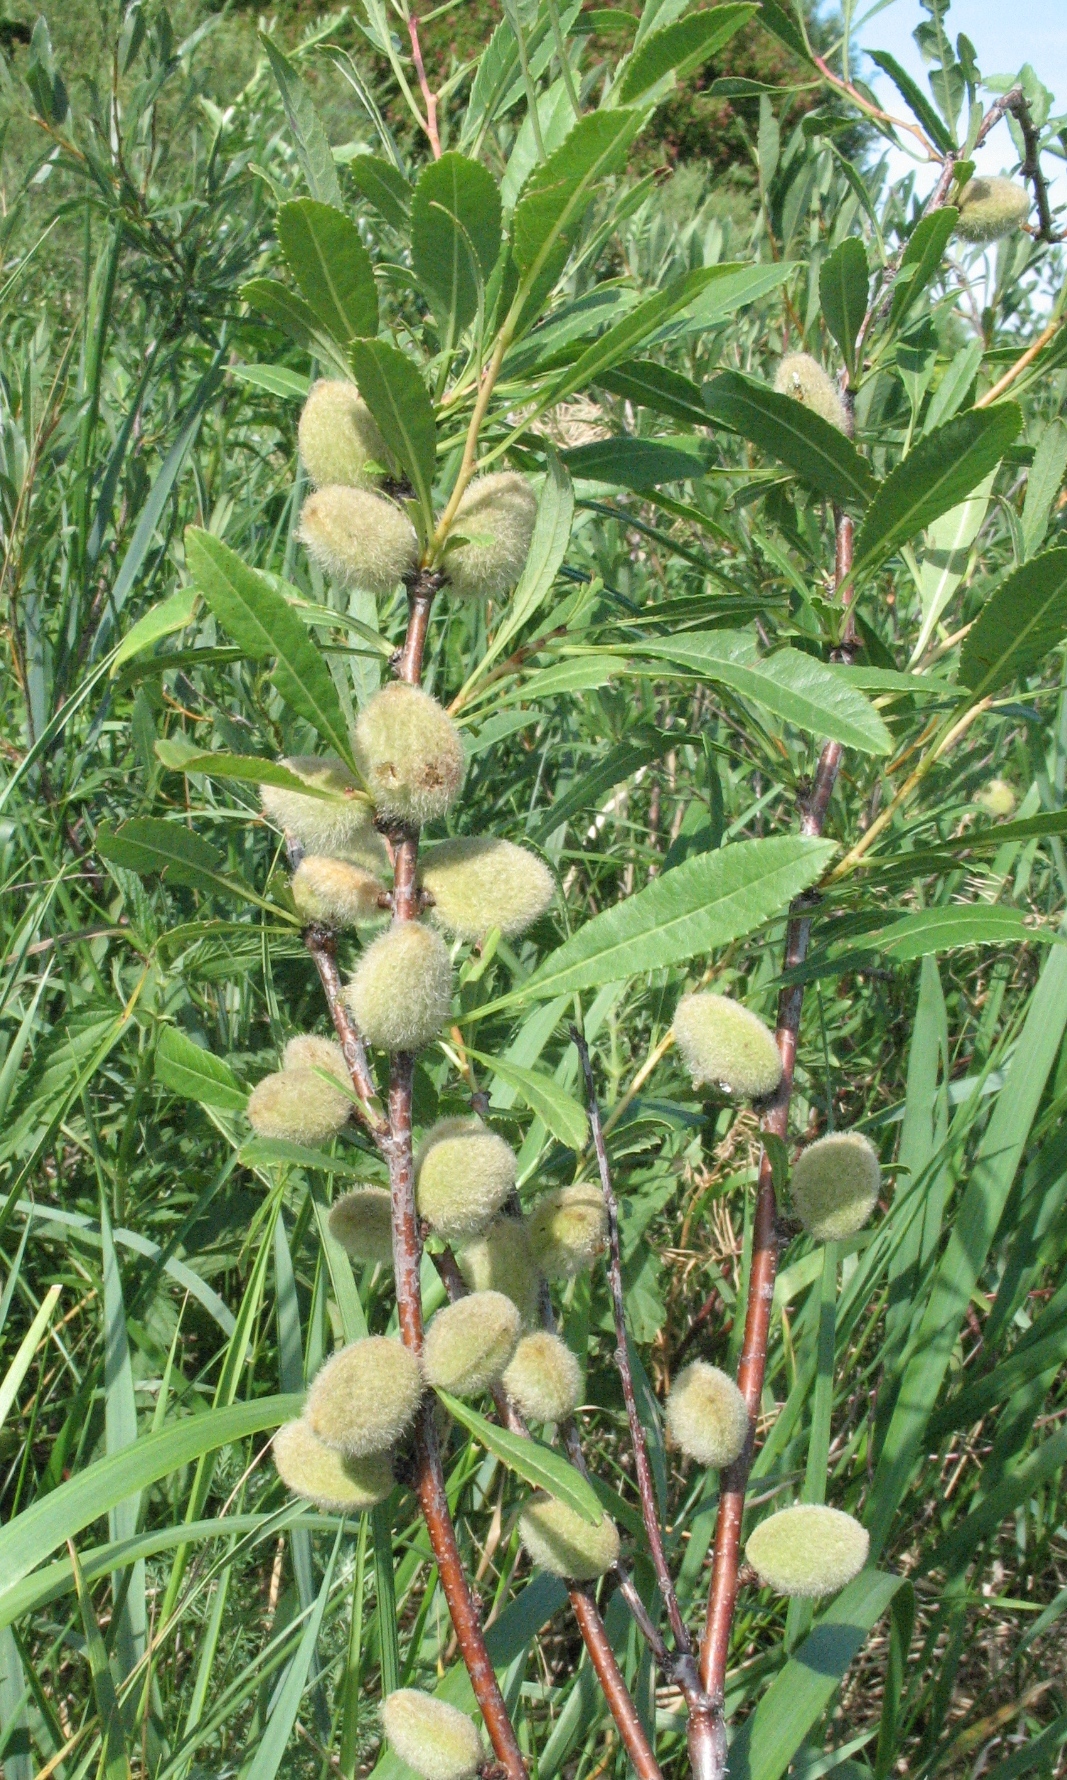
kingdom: Plantae
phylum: Tracheophyta
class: Magnoliopsida
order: Rosales
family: Rosaceae
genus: Prunus
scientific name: Prunus tenella
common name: Dwarf russian almond
